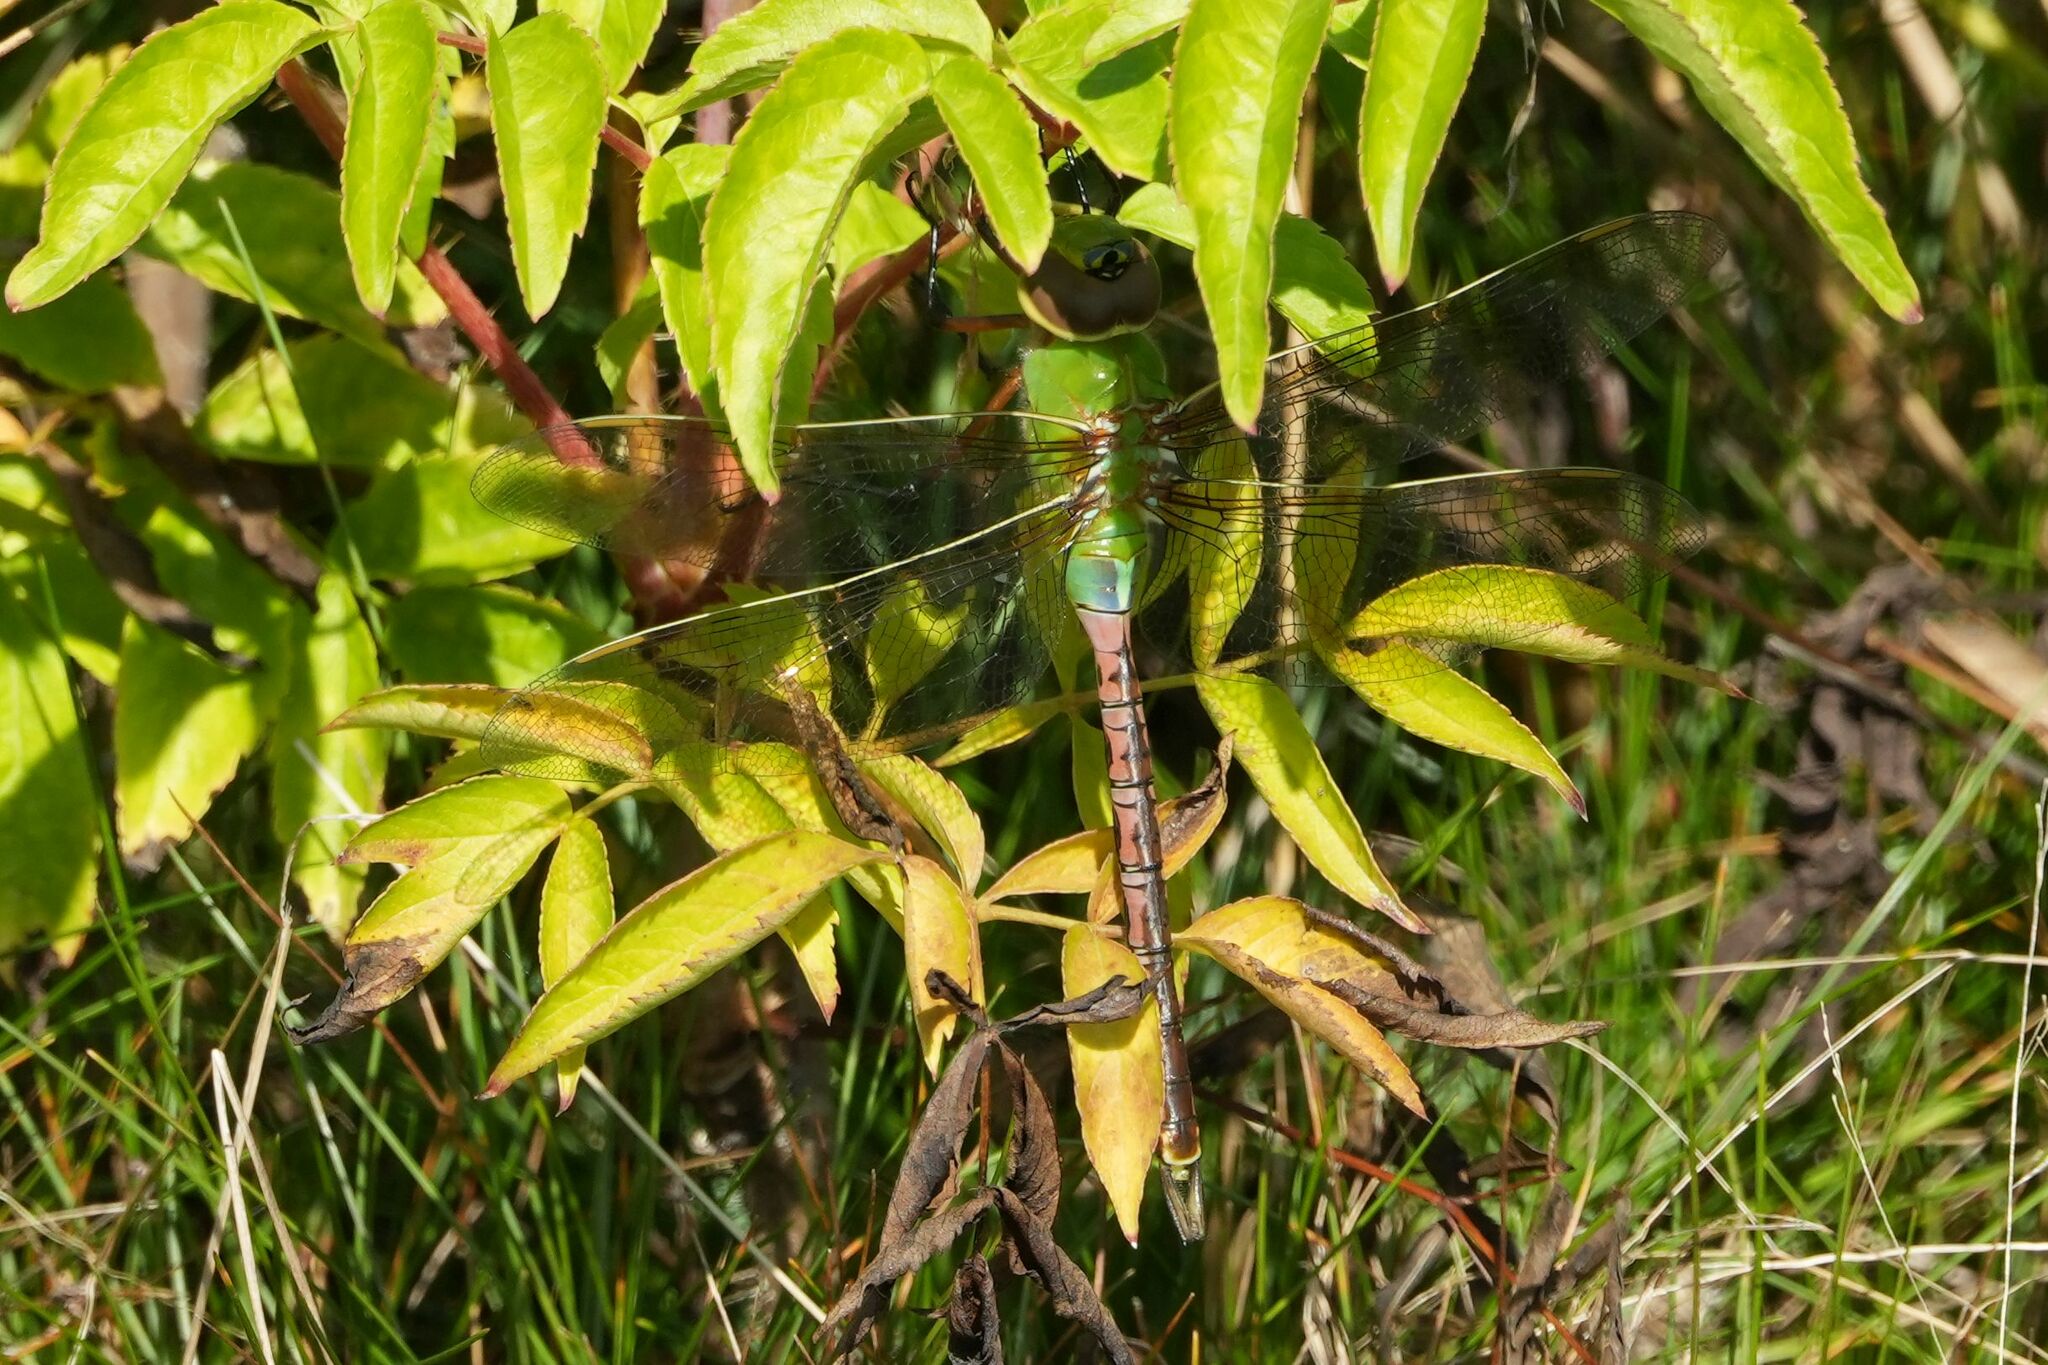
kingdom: Animalia
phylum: Arthropoda
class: Insecta
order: Odonata
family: Aeshnidae
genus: Anax
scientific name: Anax junius
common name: Common green darner
